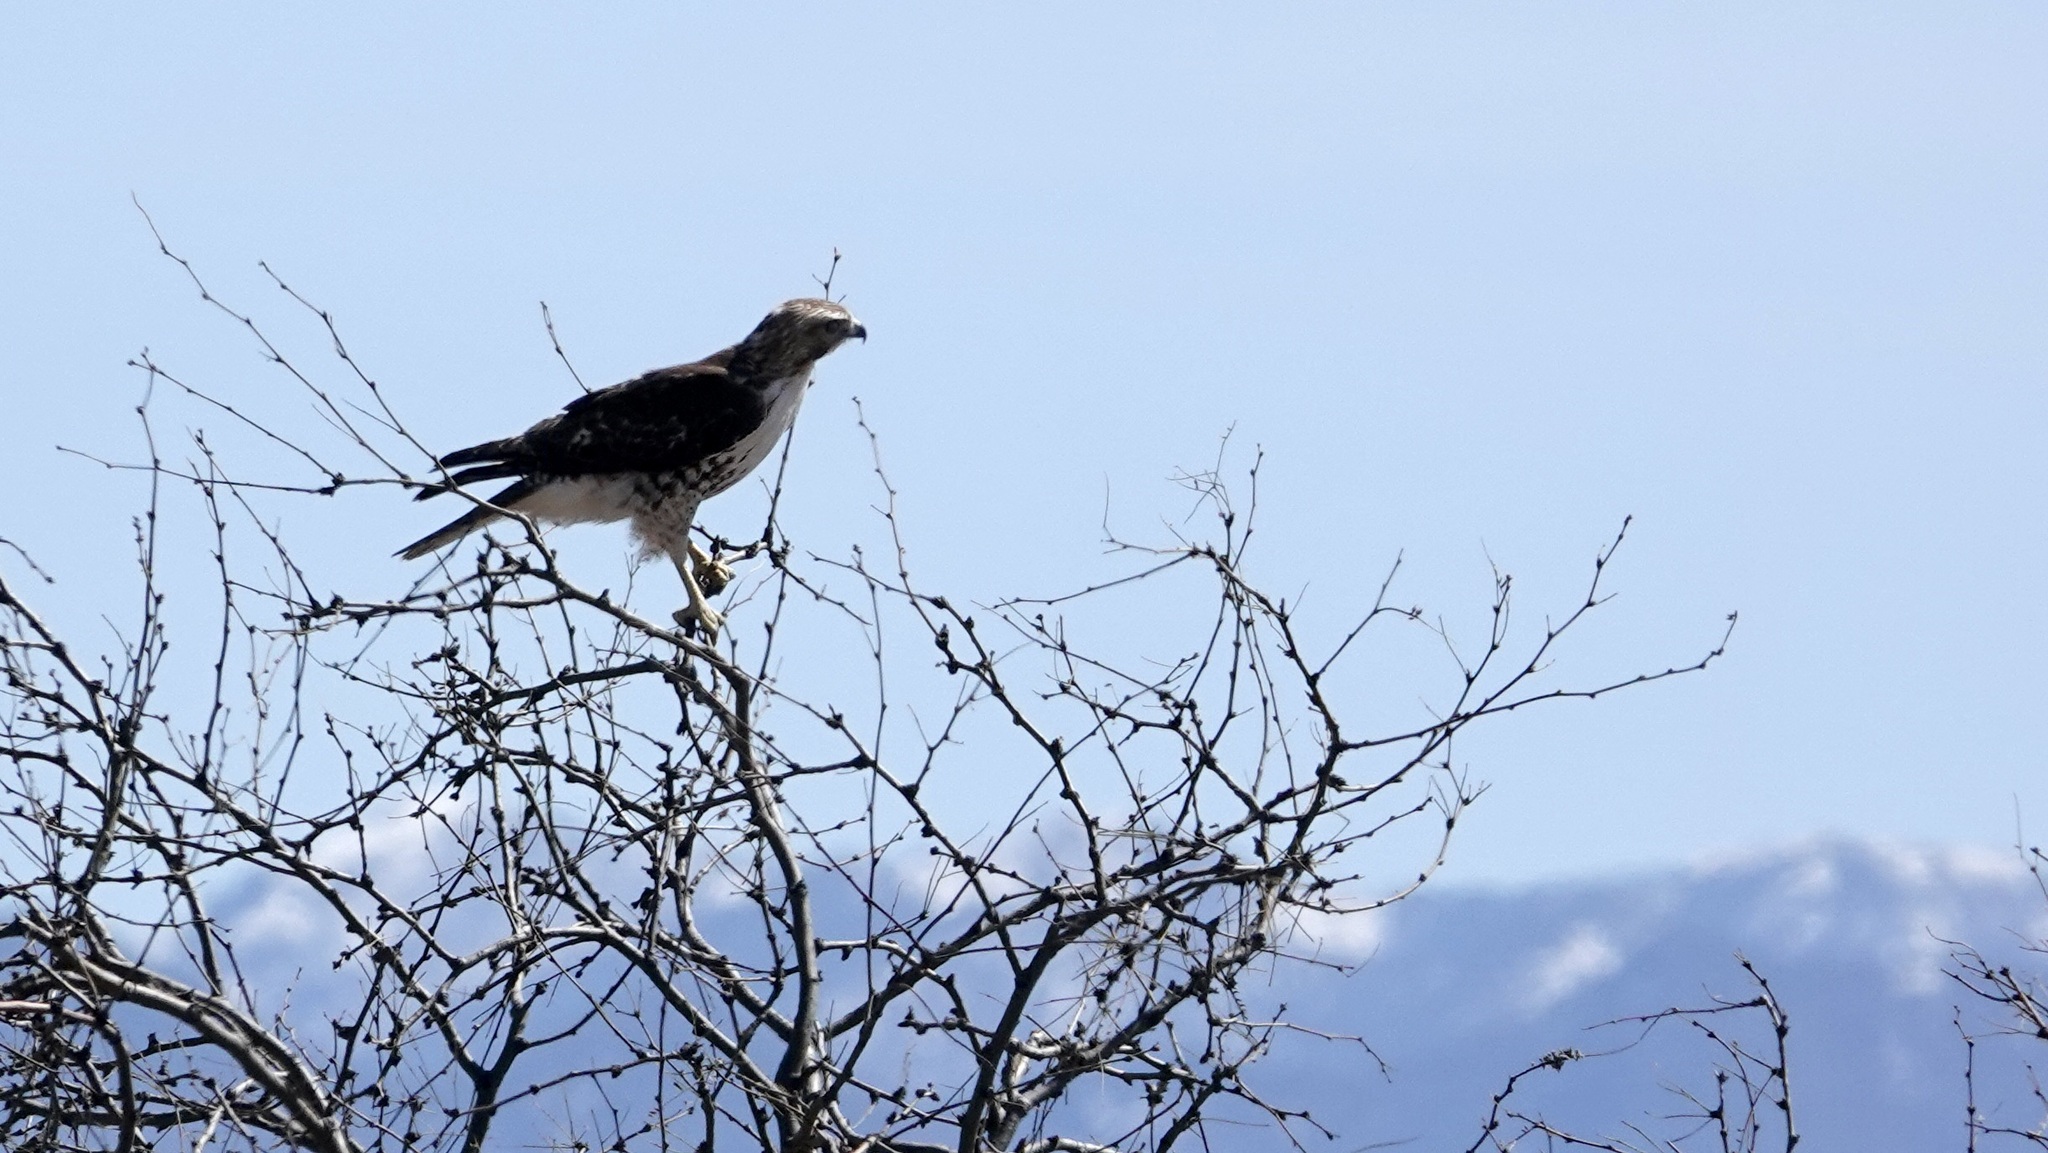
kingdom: Animalia
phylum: Chordata
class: Aves
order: Accipitriformes
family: Accipitridae
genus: Buteo
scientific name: Buteo jamaicensis
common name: Red-tailed hawk
